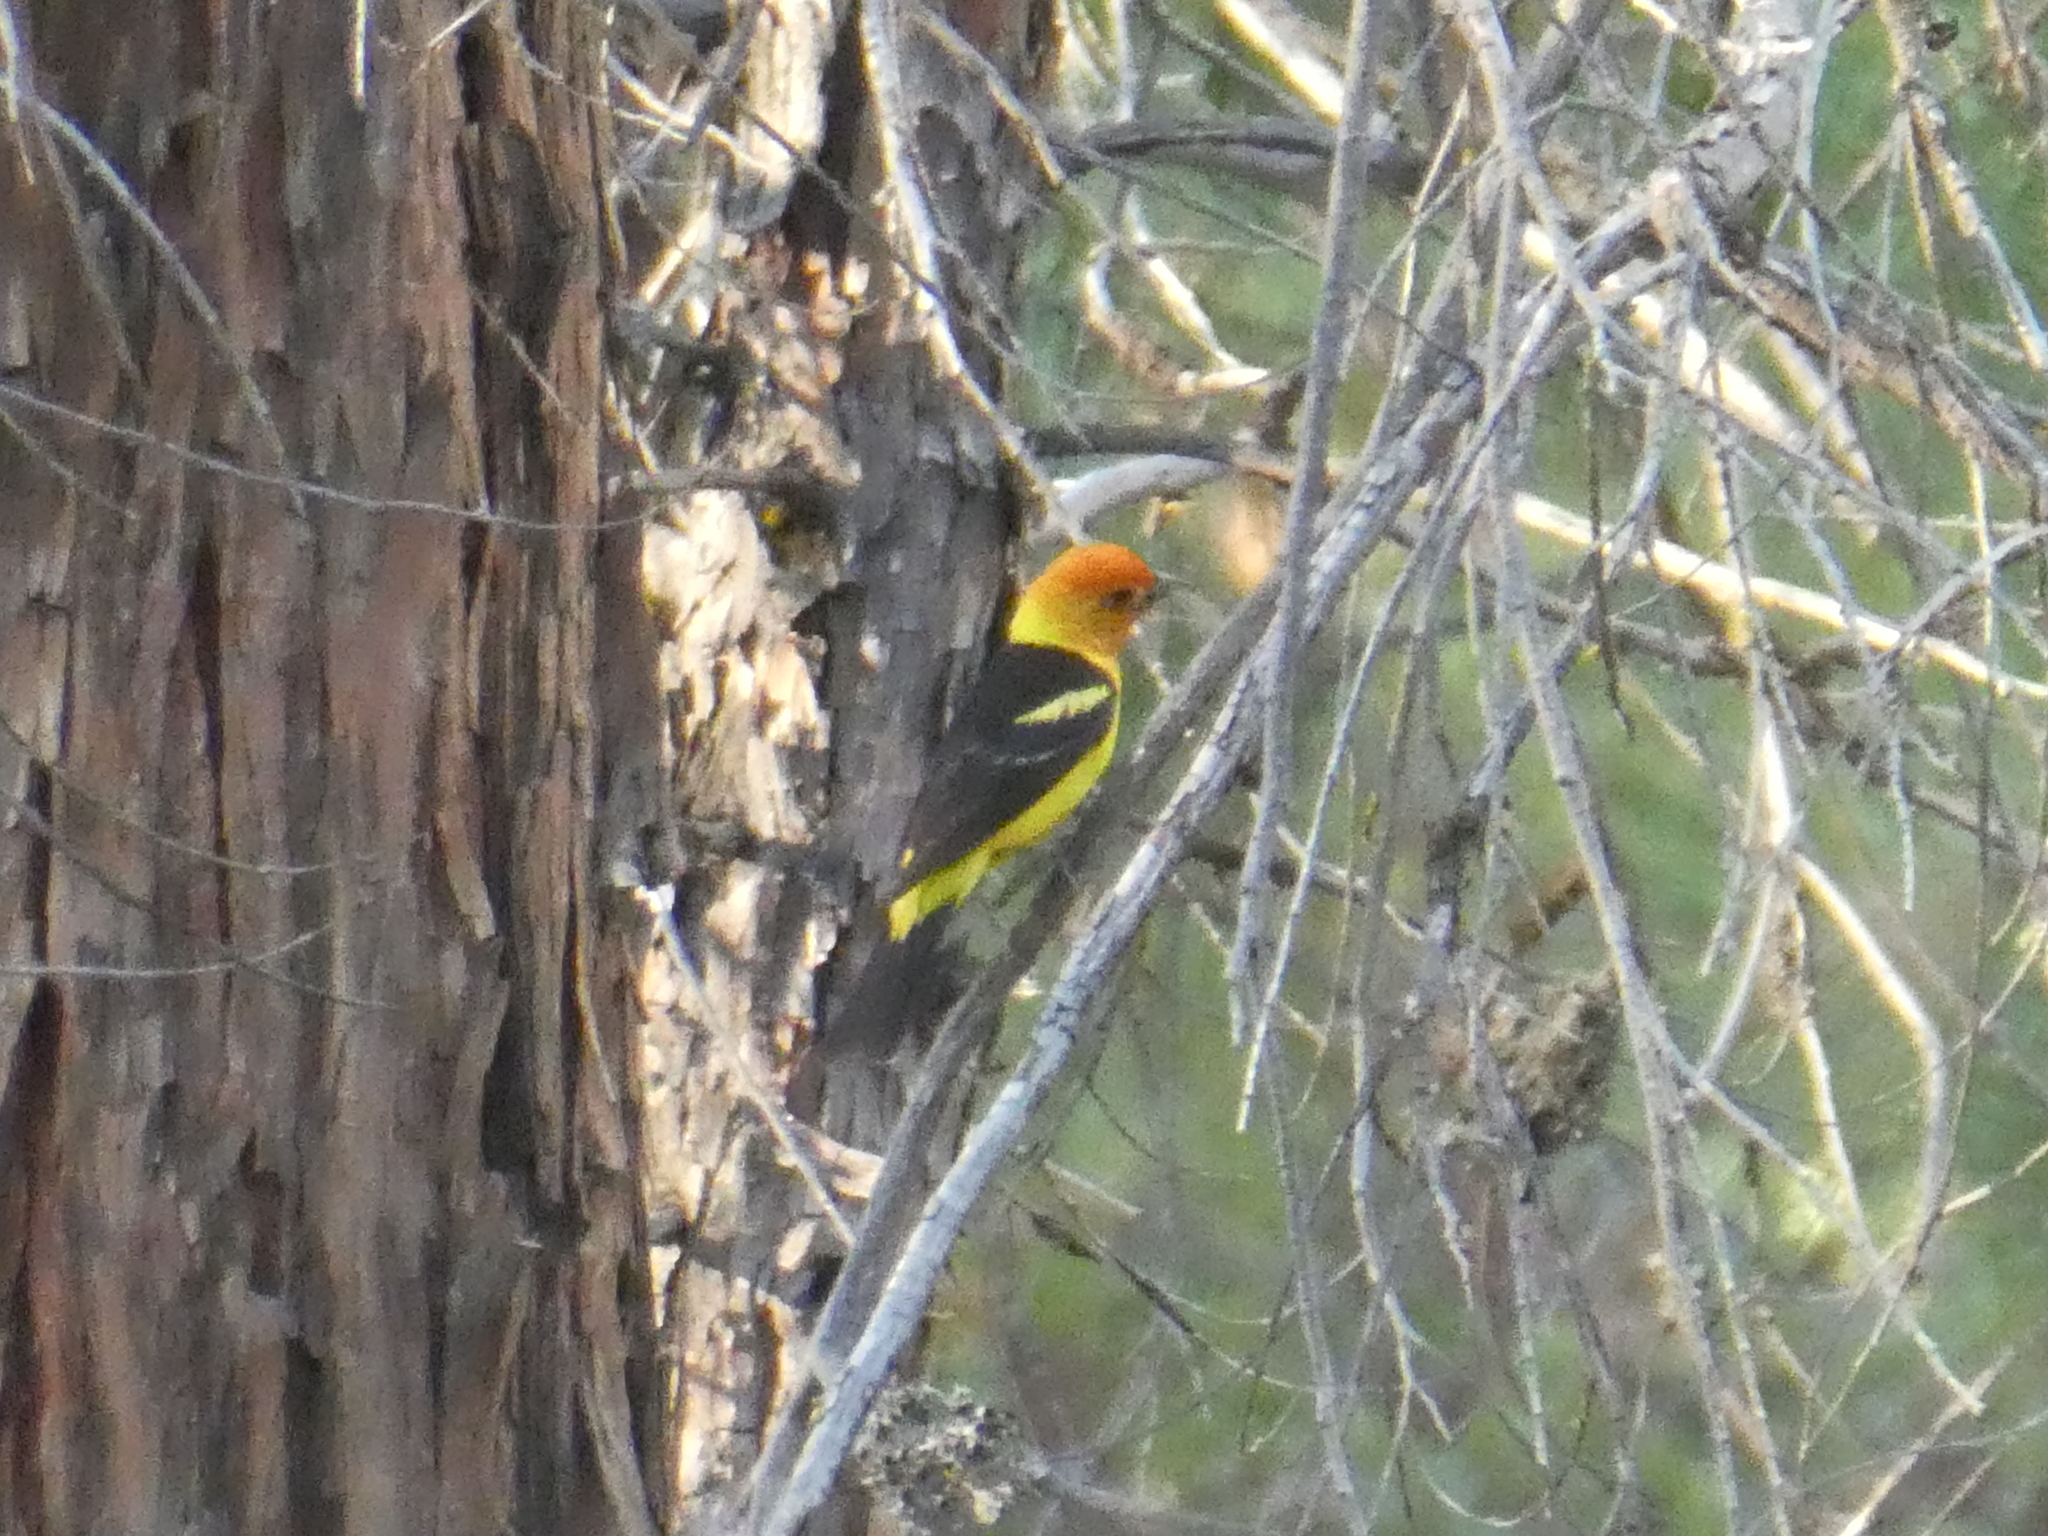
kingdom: Animalia
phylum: Chordata
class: Aves
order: Passeriformes
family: Cardinalidae
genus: Piranga
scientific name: Piranga ludoviciana
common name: Western tanager
